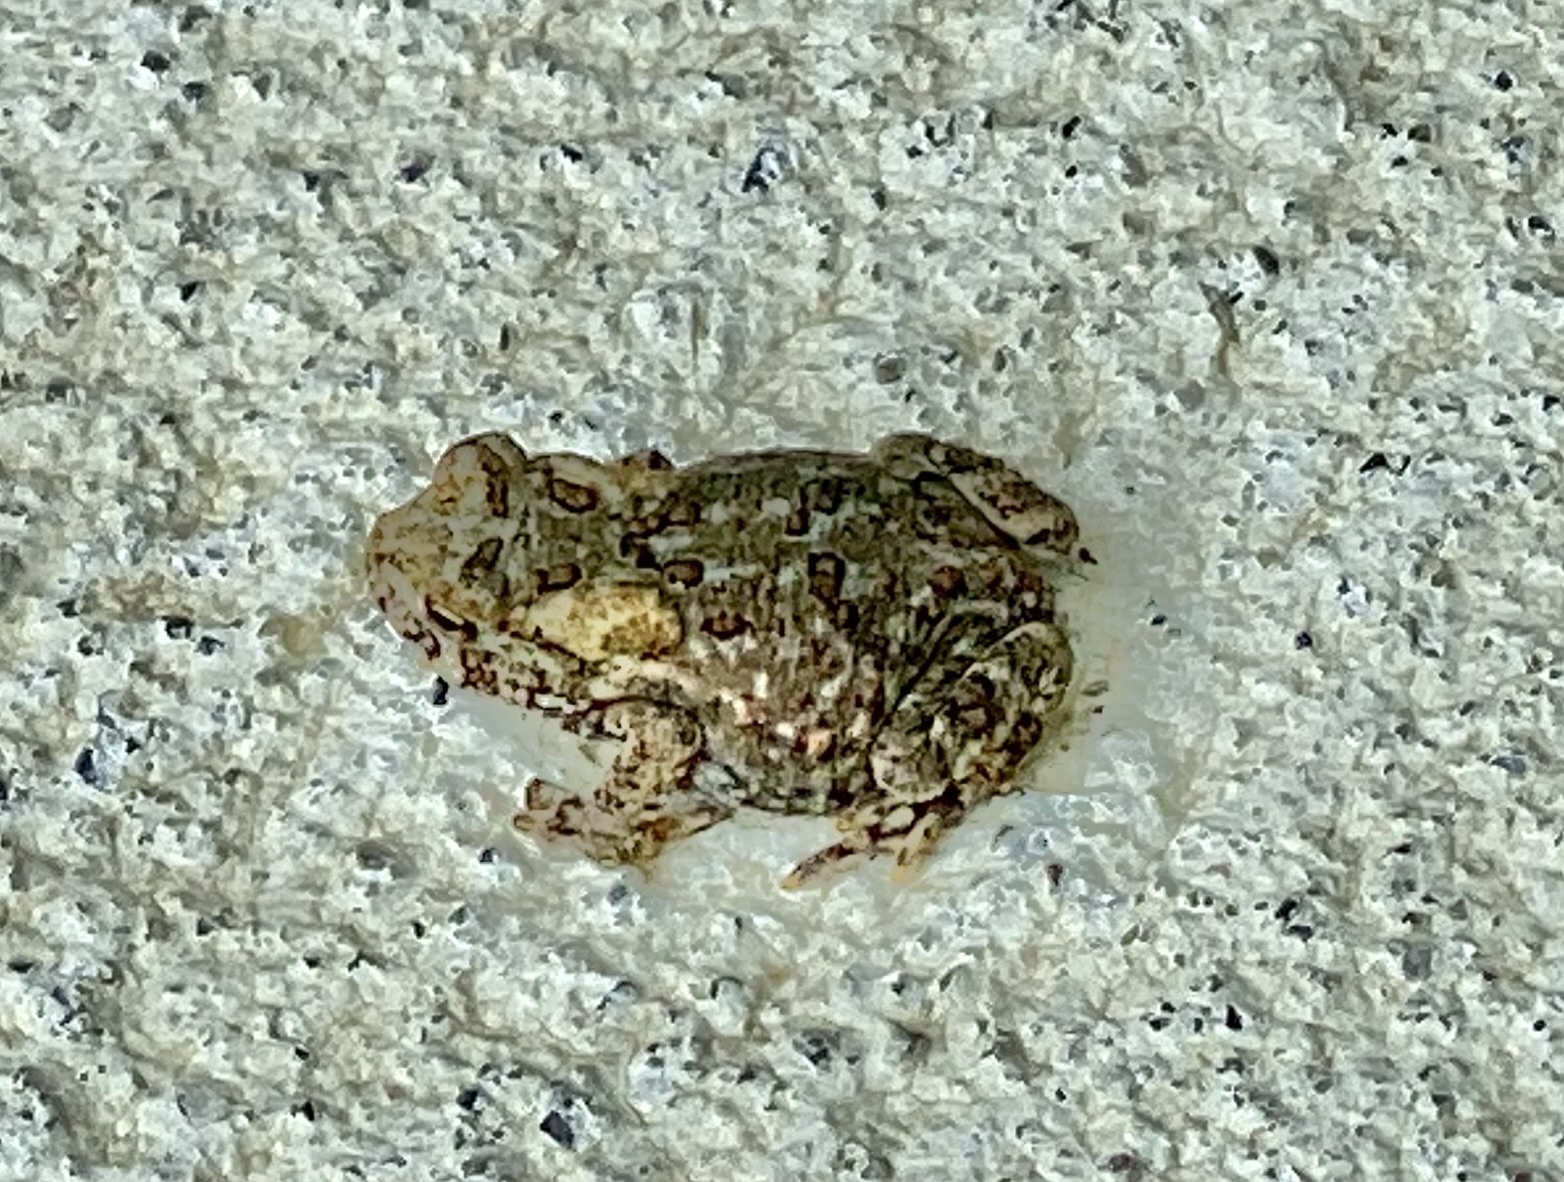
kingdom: Animalia
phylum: Chordata
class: Amphibia
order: Anura
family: Bufonidae
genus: Anaxyrus
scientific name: Anaxyrus americanus
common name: American toad
